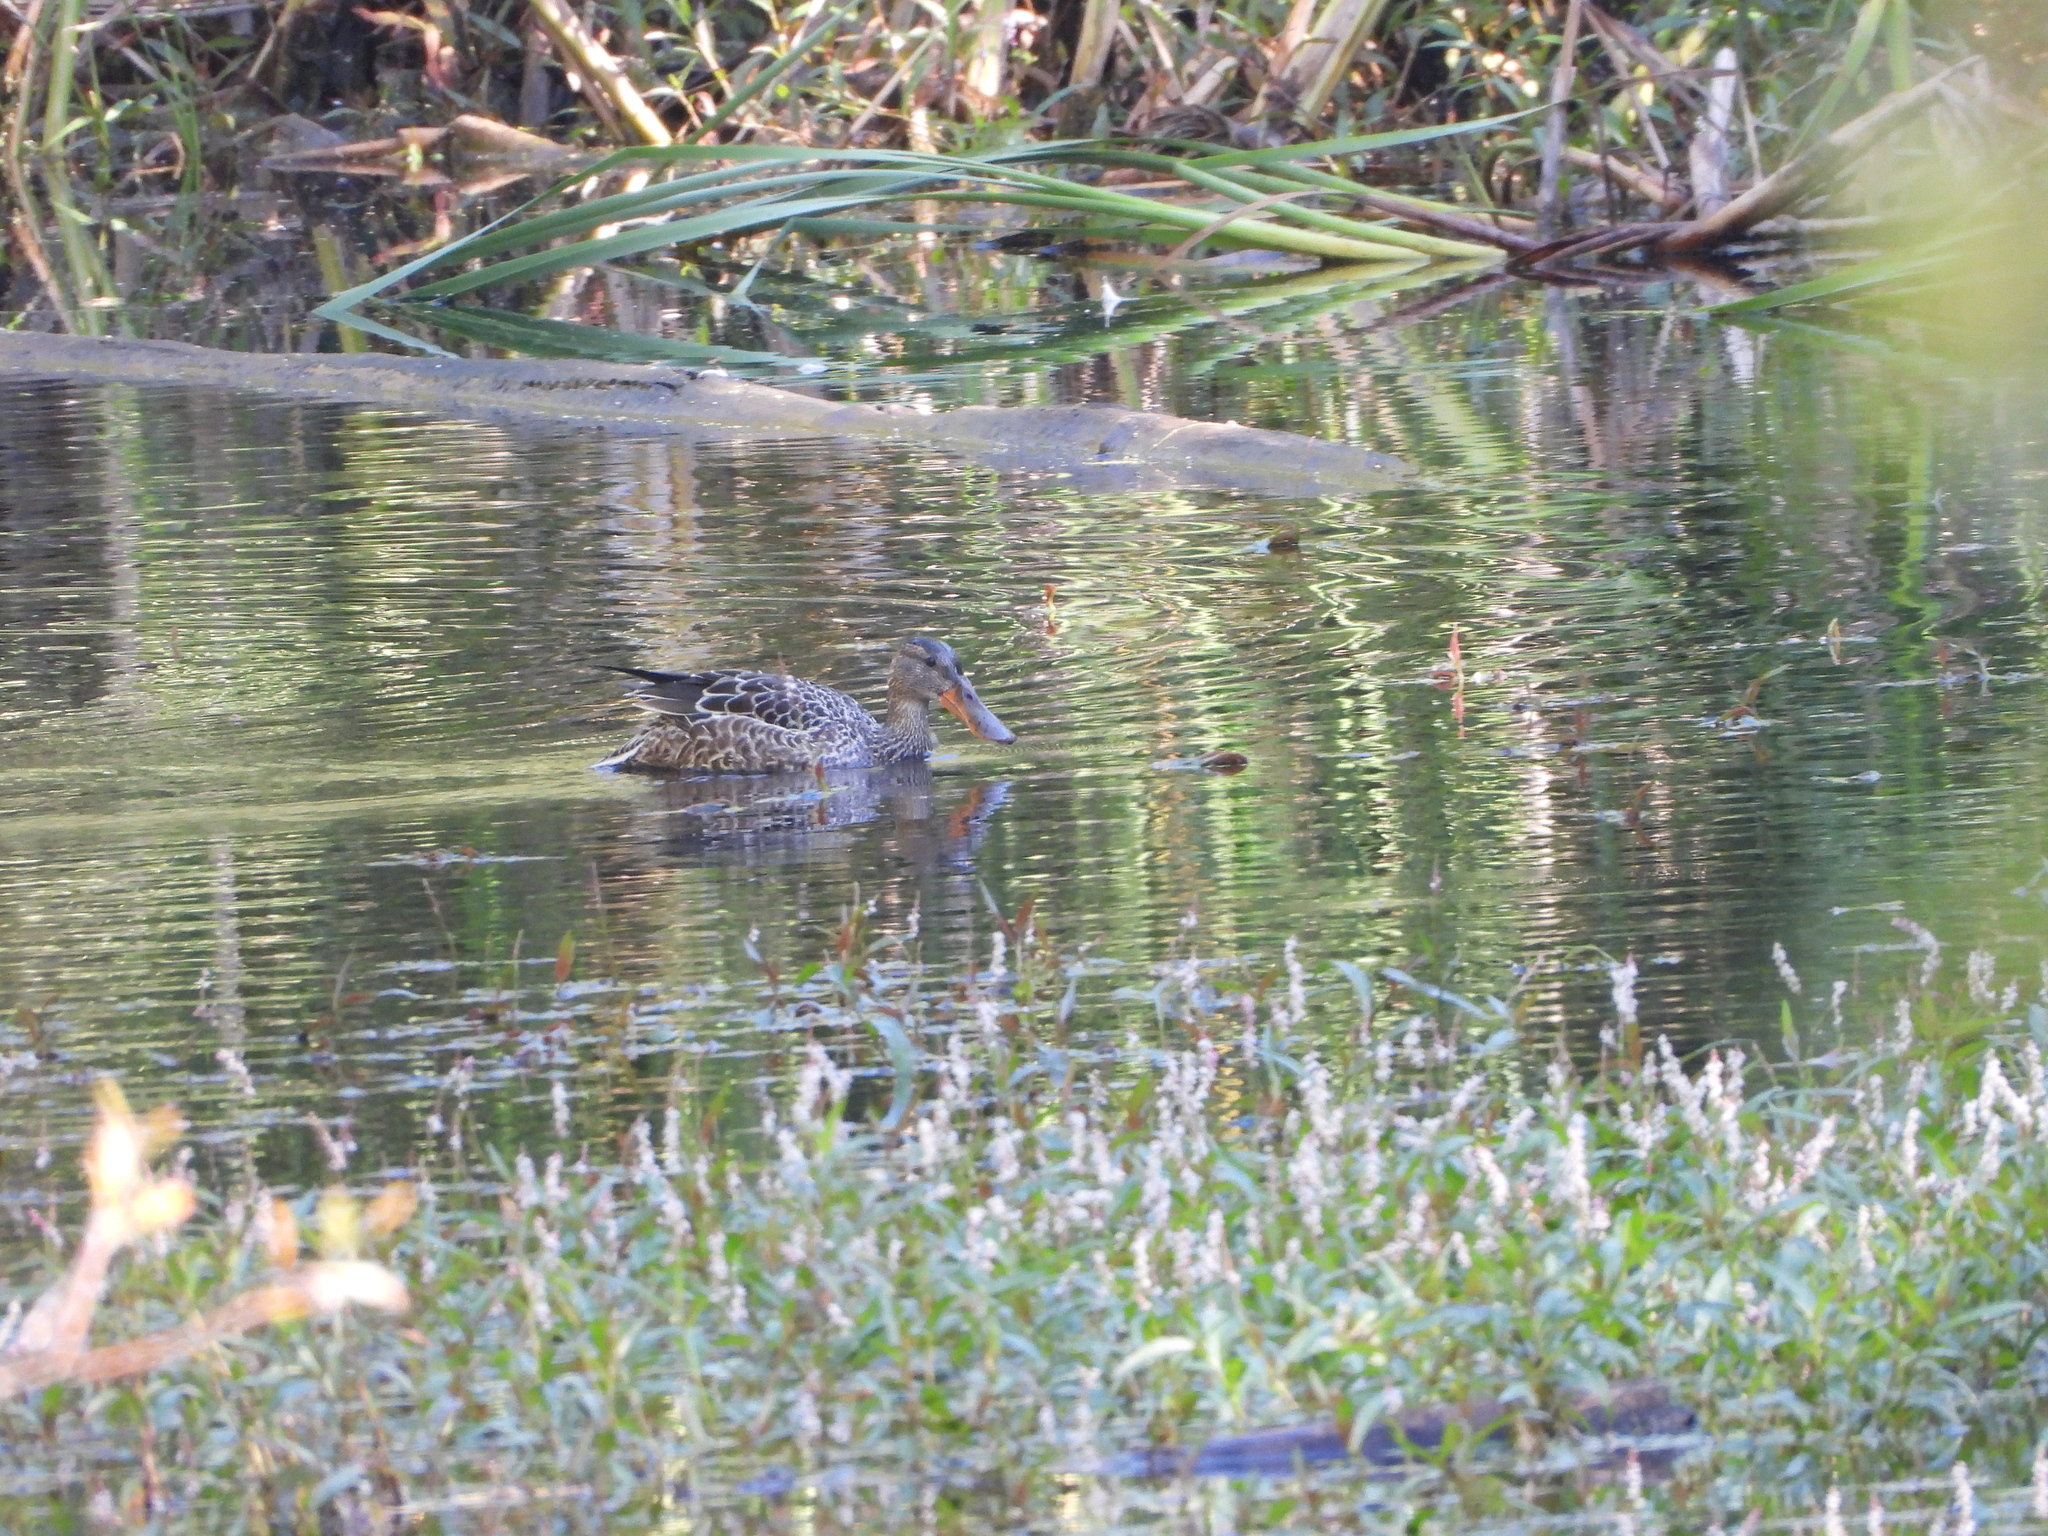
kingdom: Animalia
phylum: Chordata
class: Aves
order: Anseriformes
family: Anatidae
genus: Spatula
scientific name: Spatula clypeata
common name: Northern shoveler
